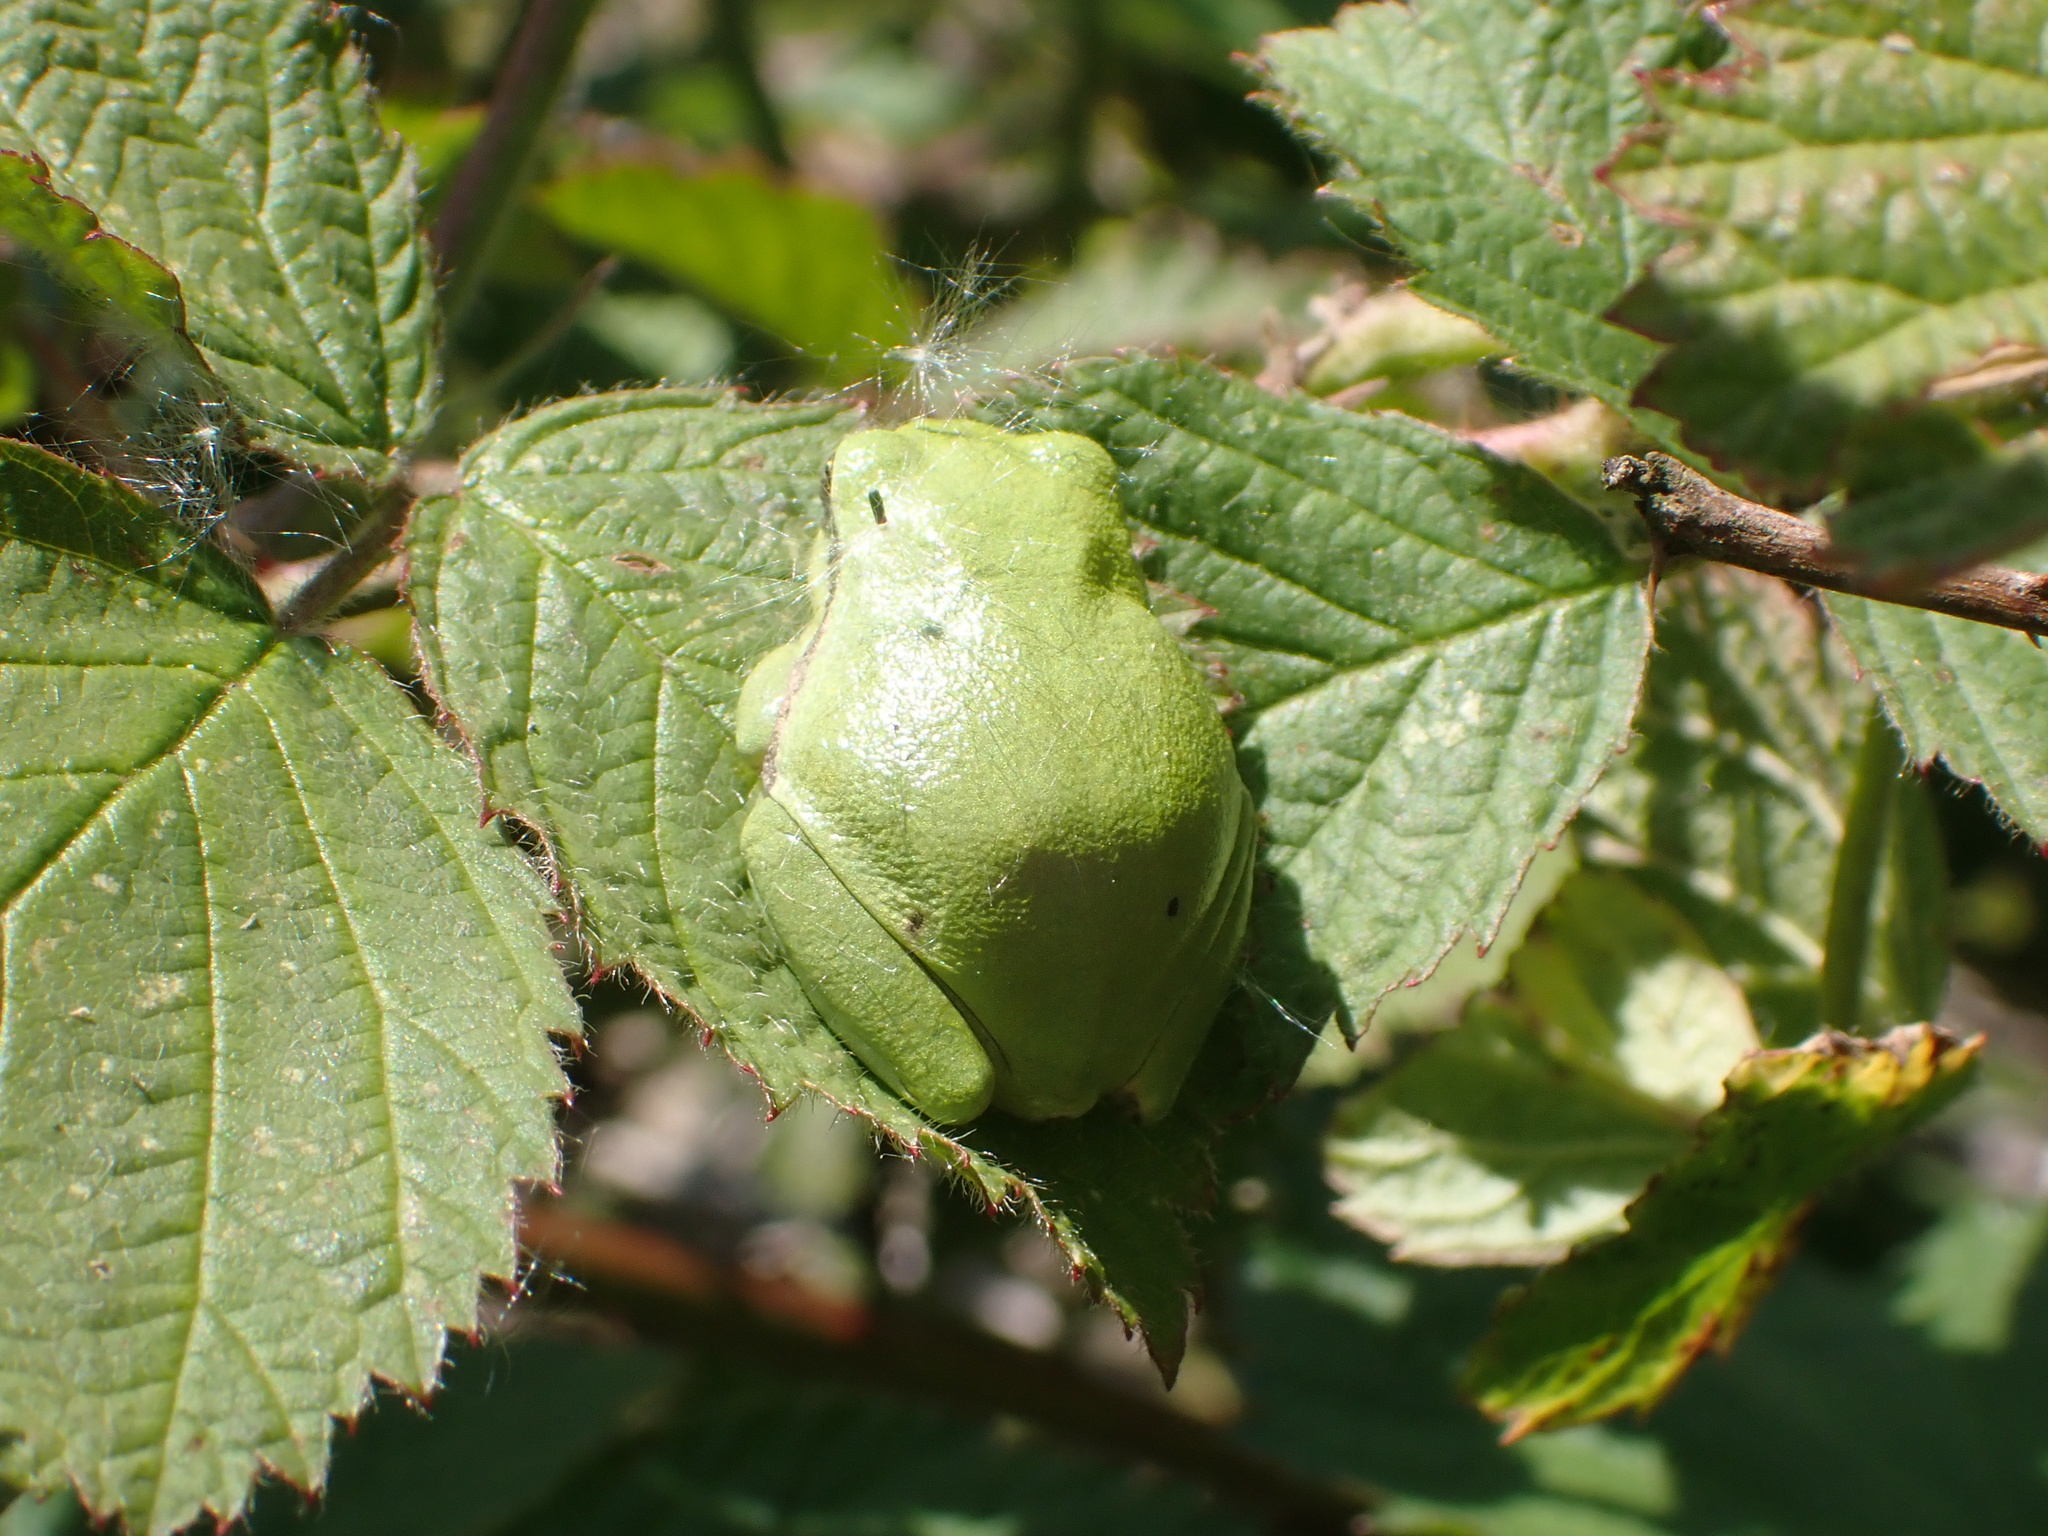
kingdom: Animalia
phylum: Chordata
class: Amphibia
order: Anura
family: Hylidae
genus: Hyla
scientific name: Hyla arborea
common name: Common tree frog
